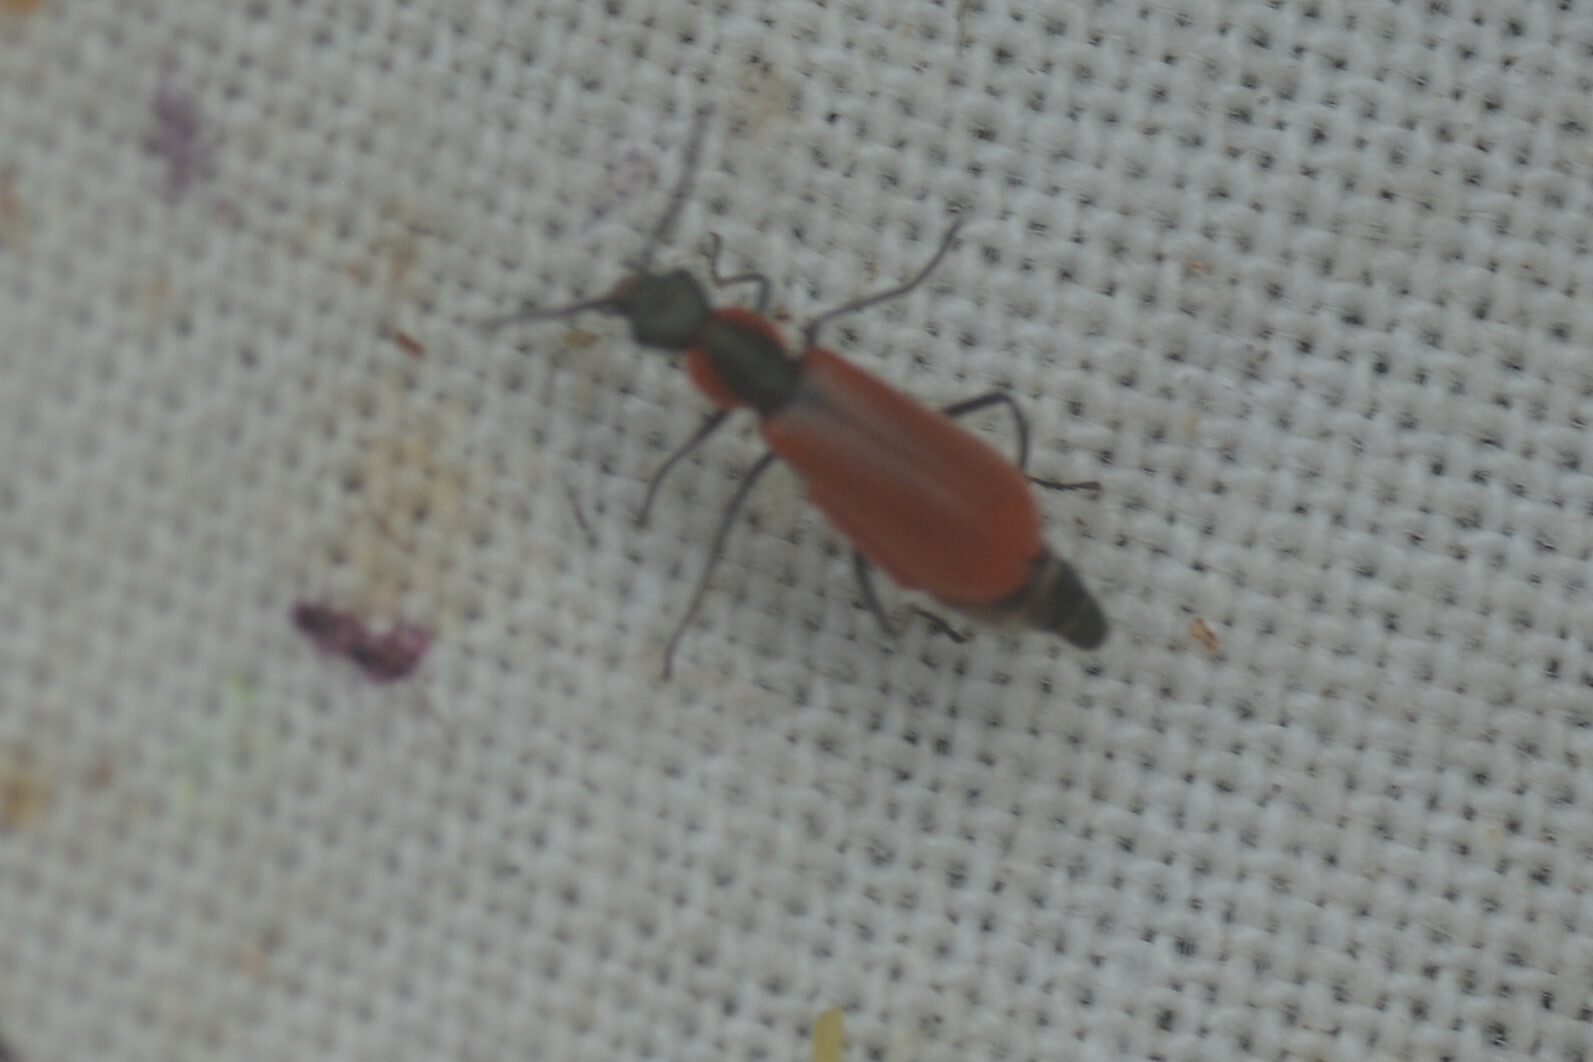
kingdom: Animalia
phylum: Arthropoda
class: Insecta
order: Coleoptera
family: Melyridae
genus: Anthocomus
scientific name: Anthocomus rufus
